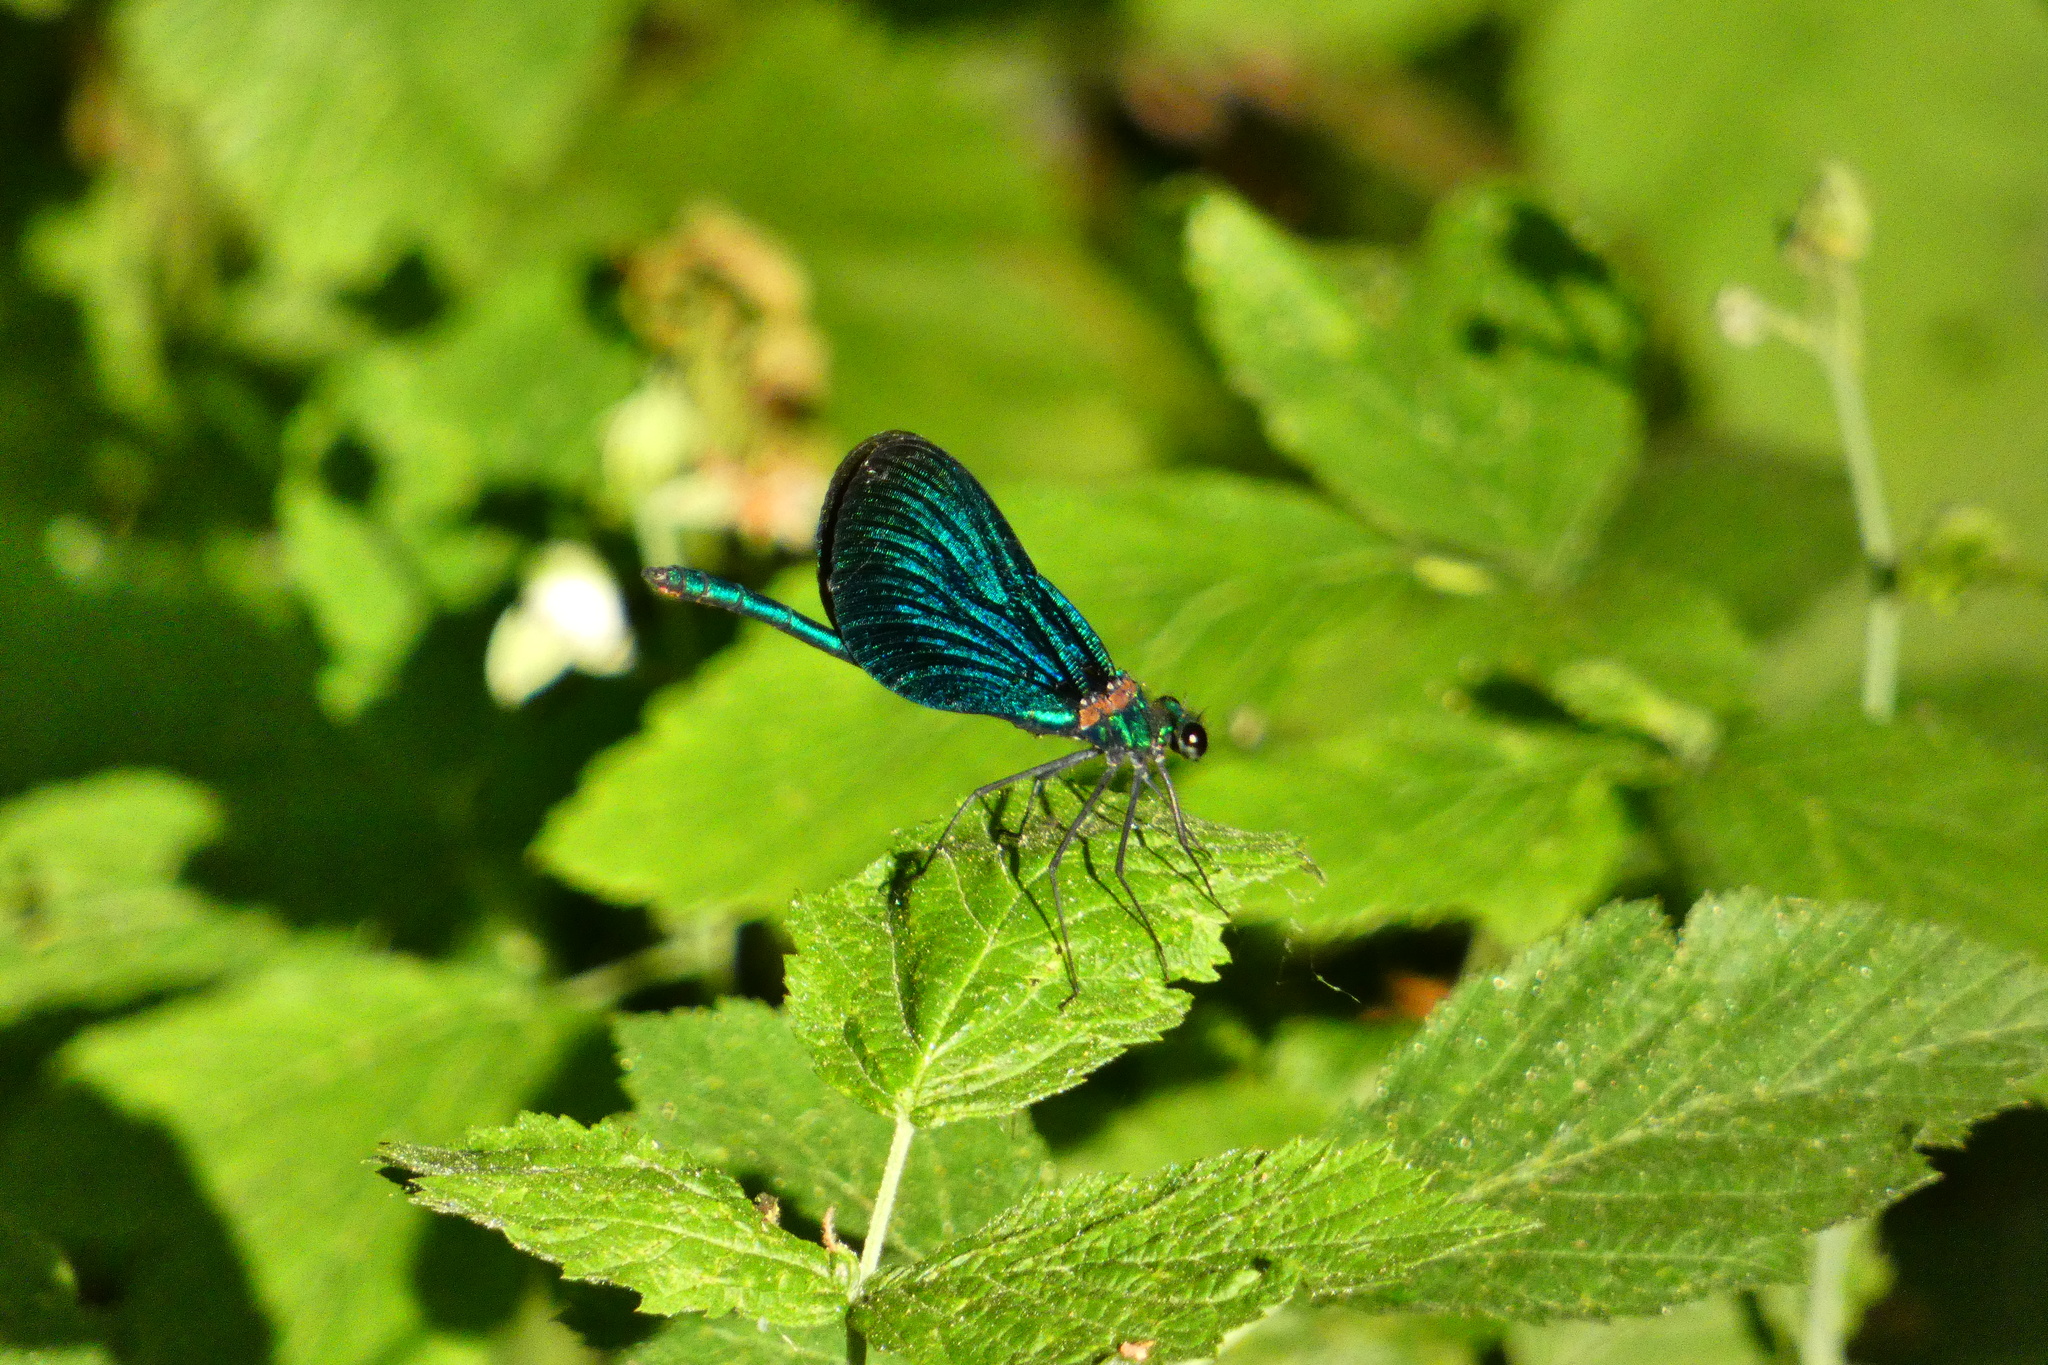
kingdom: Animalia
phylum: Arthropoda
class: Insecta
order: Odonata
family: Calopterygidae
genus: Calopteryx
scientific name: Calopteryx virgo
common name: Beautiful demoiselle
